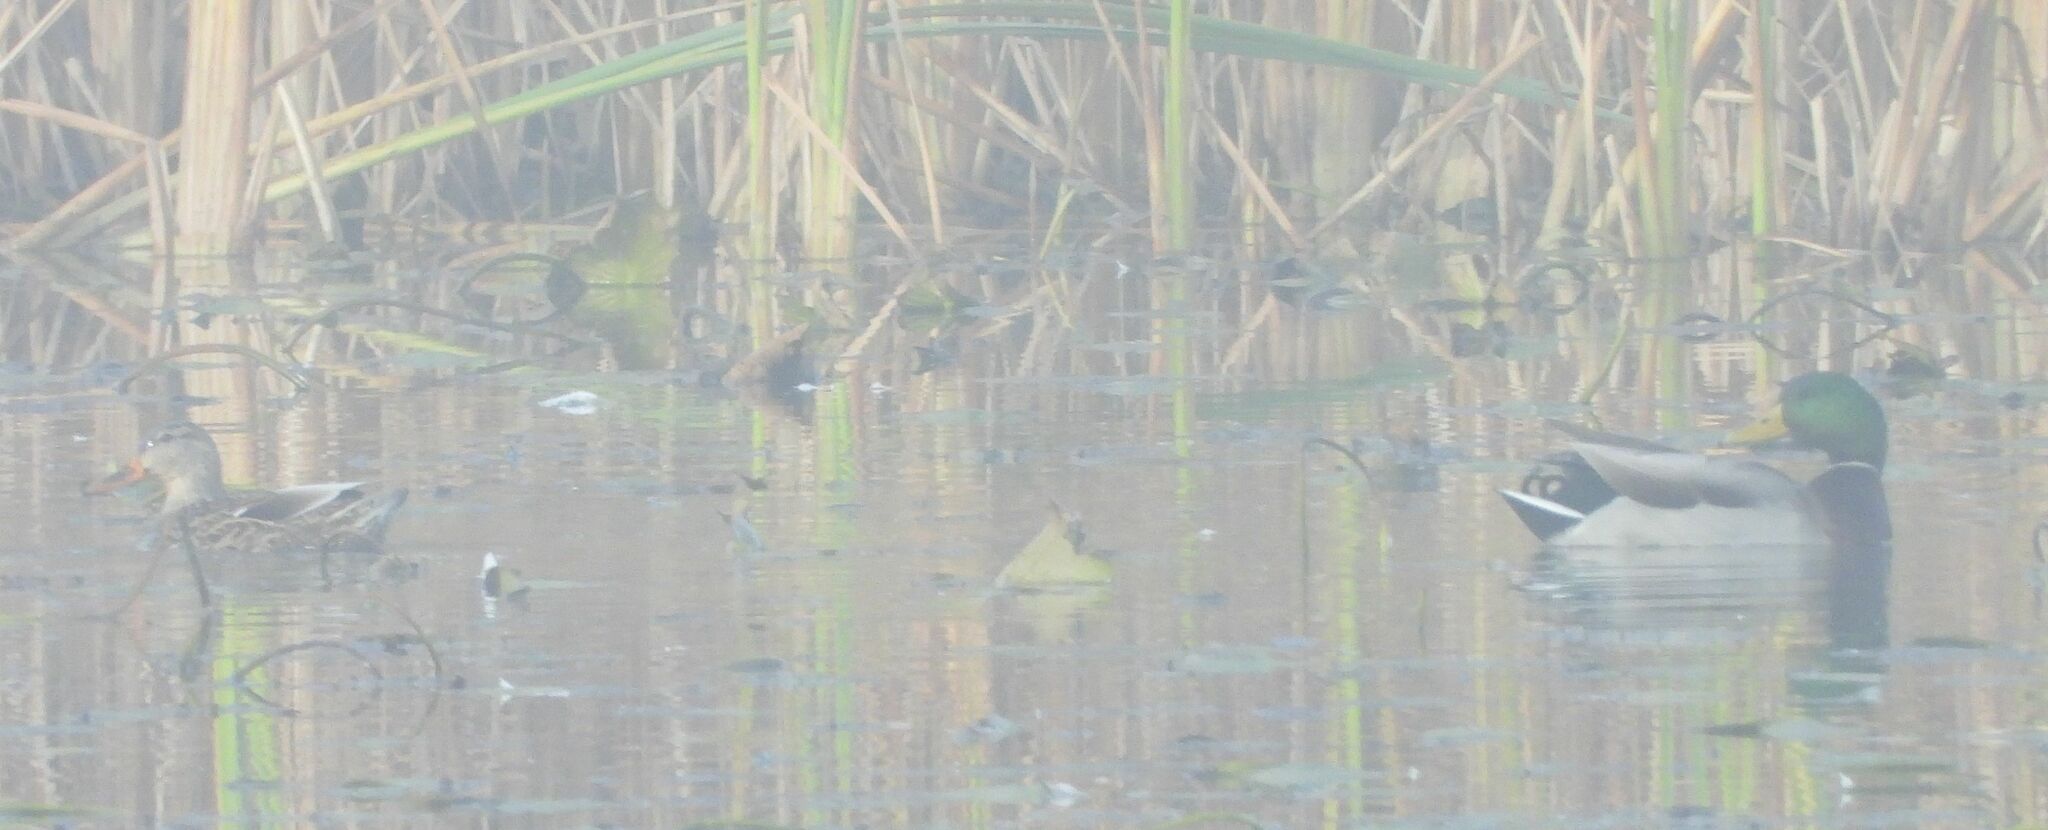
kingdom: Animalia
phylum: Chordata
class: Aves
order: Anseriformes
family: Anatidae
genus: Anas
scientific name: Anas platyrhynchos
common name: Mallard
